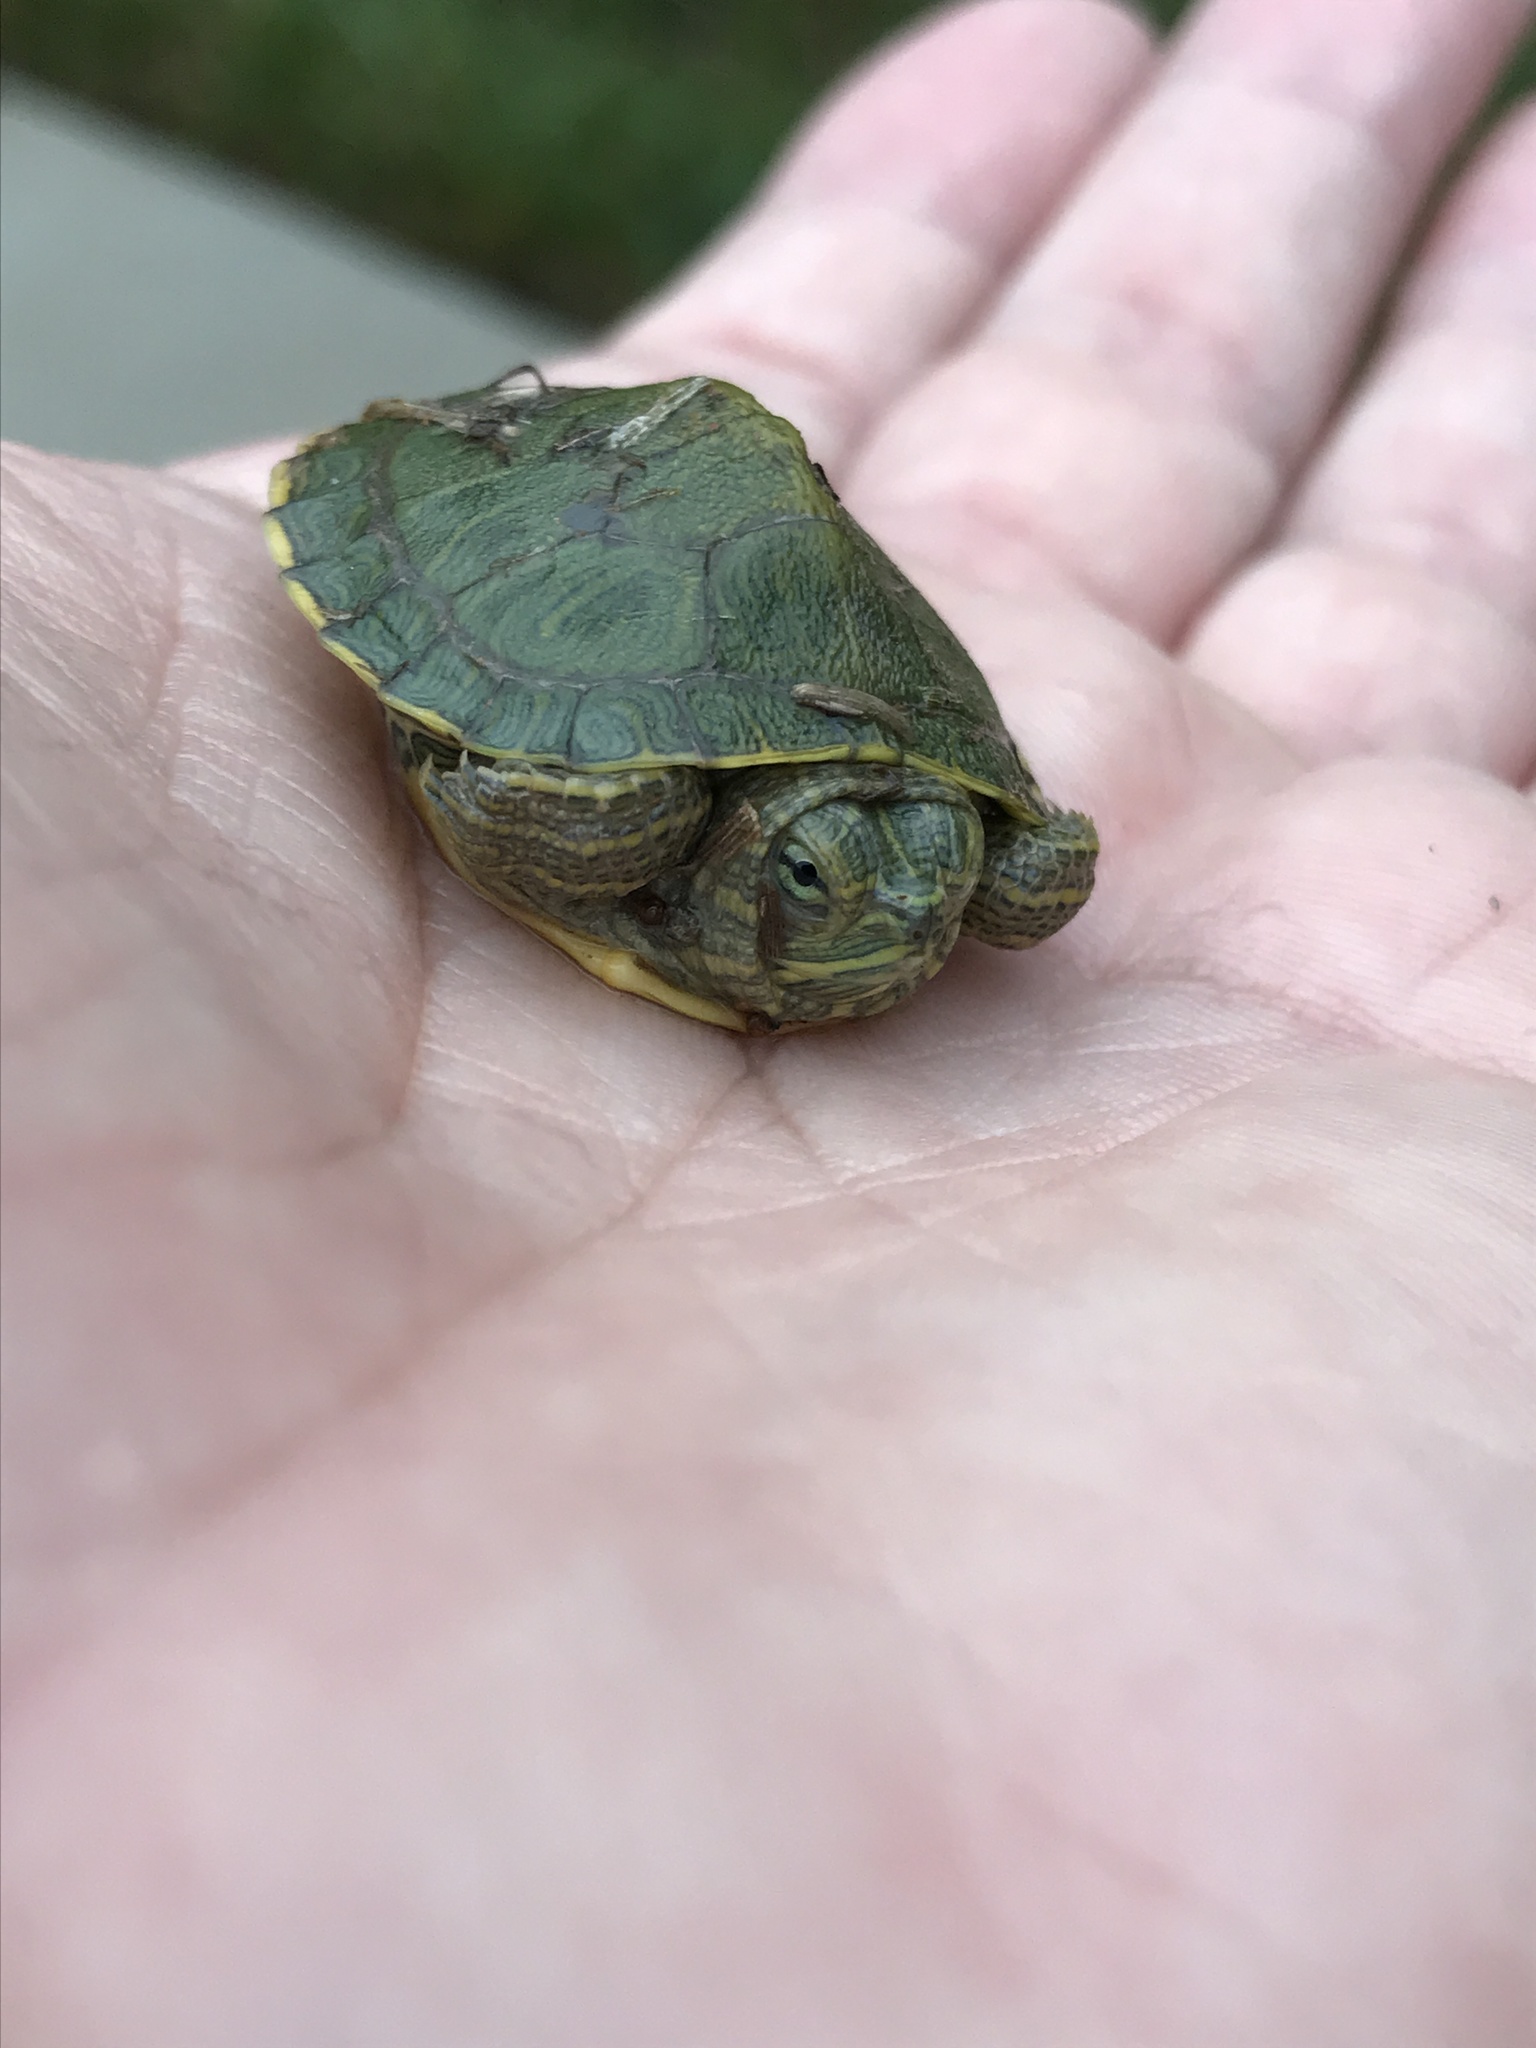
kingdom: Animalia
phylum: Chordata
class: Testudines
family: Emydidae
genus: Trachemys
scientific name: Trachemys scripta
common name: Slider
